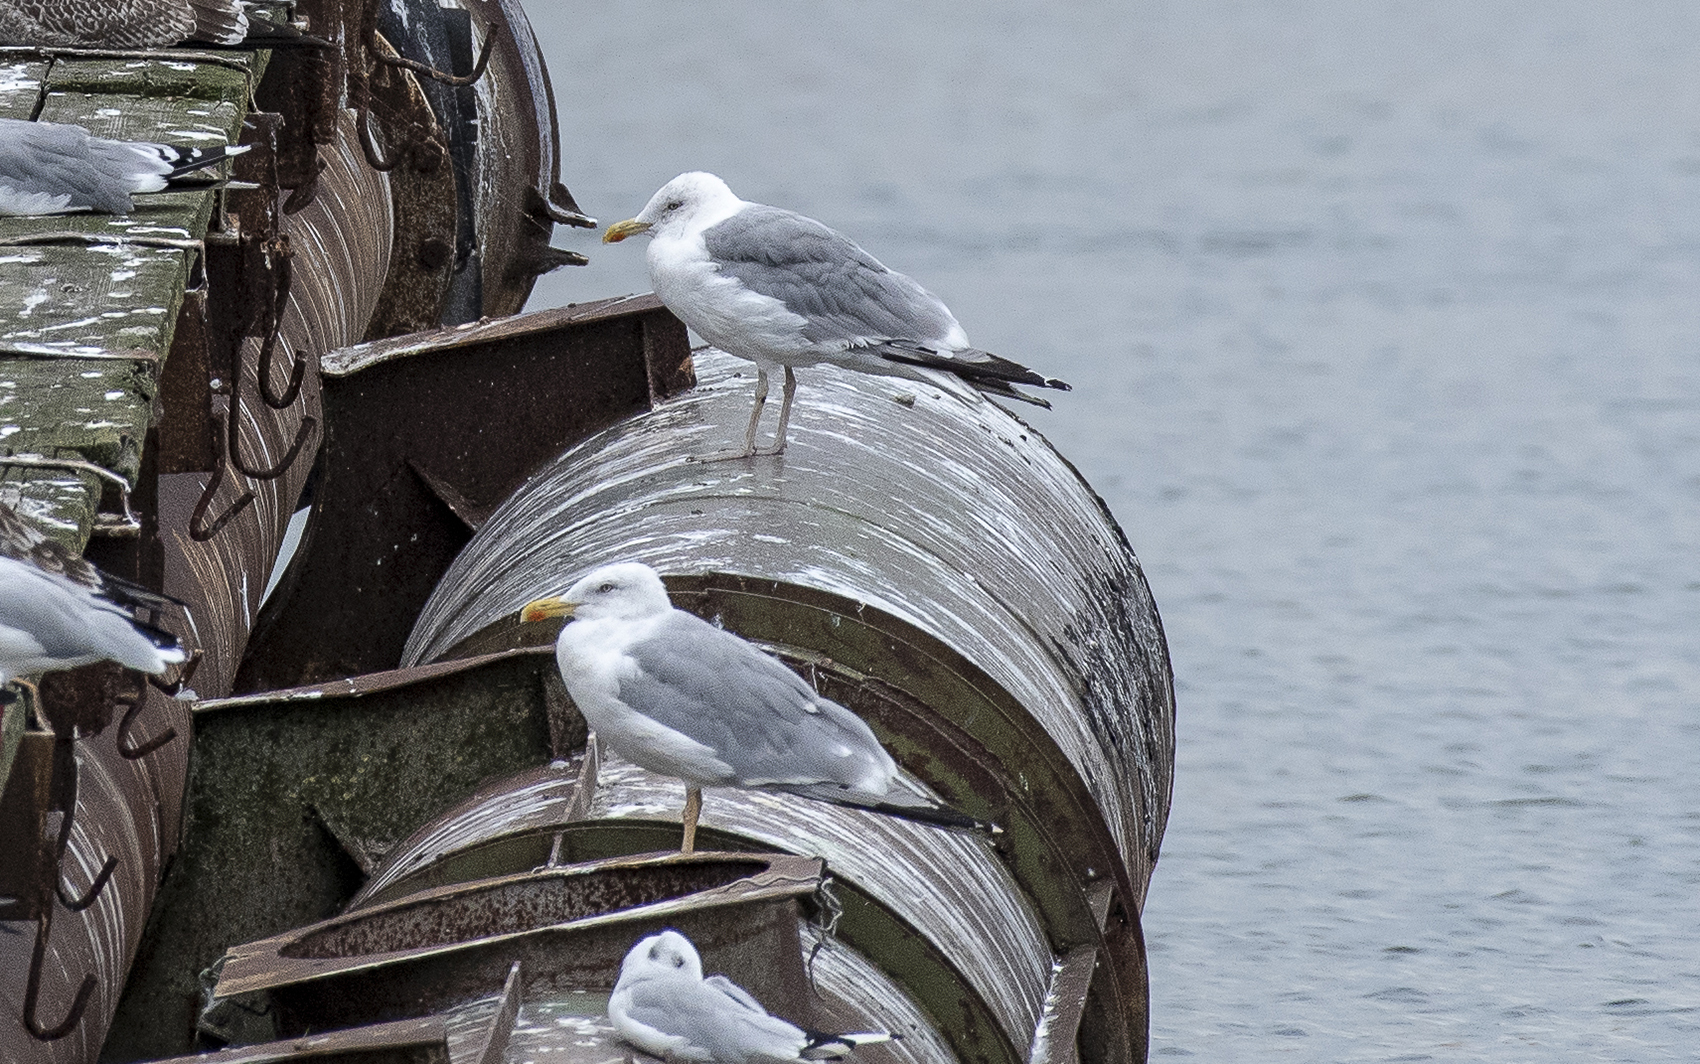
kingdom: Animalia
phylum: Chordata
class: Aves
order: Charadriiformes
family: Laridae
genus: Larus
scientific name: Larus argentatus
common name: Herring gull
